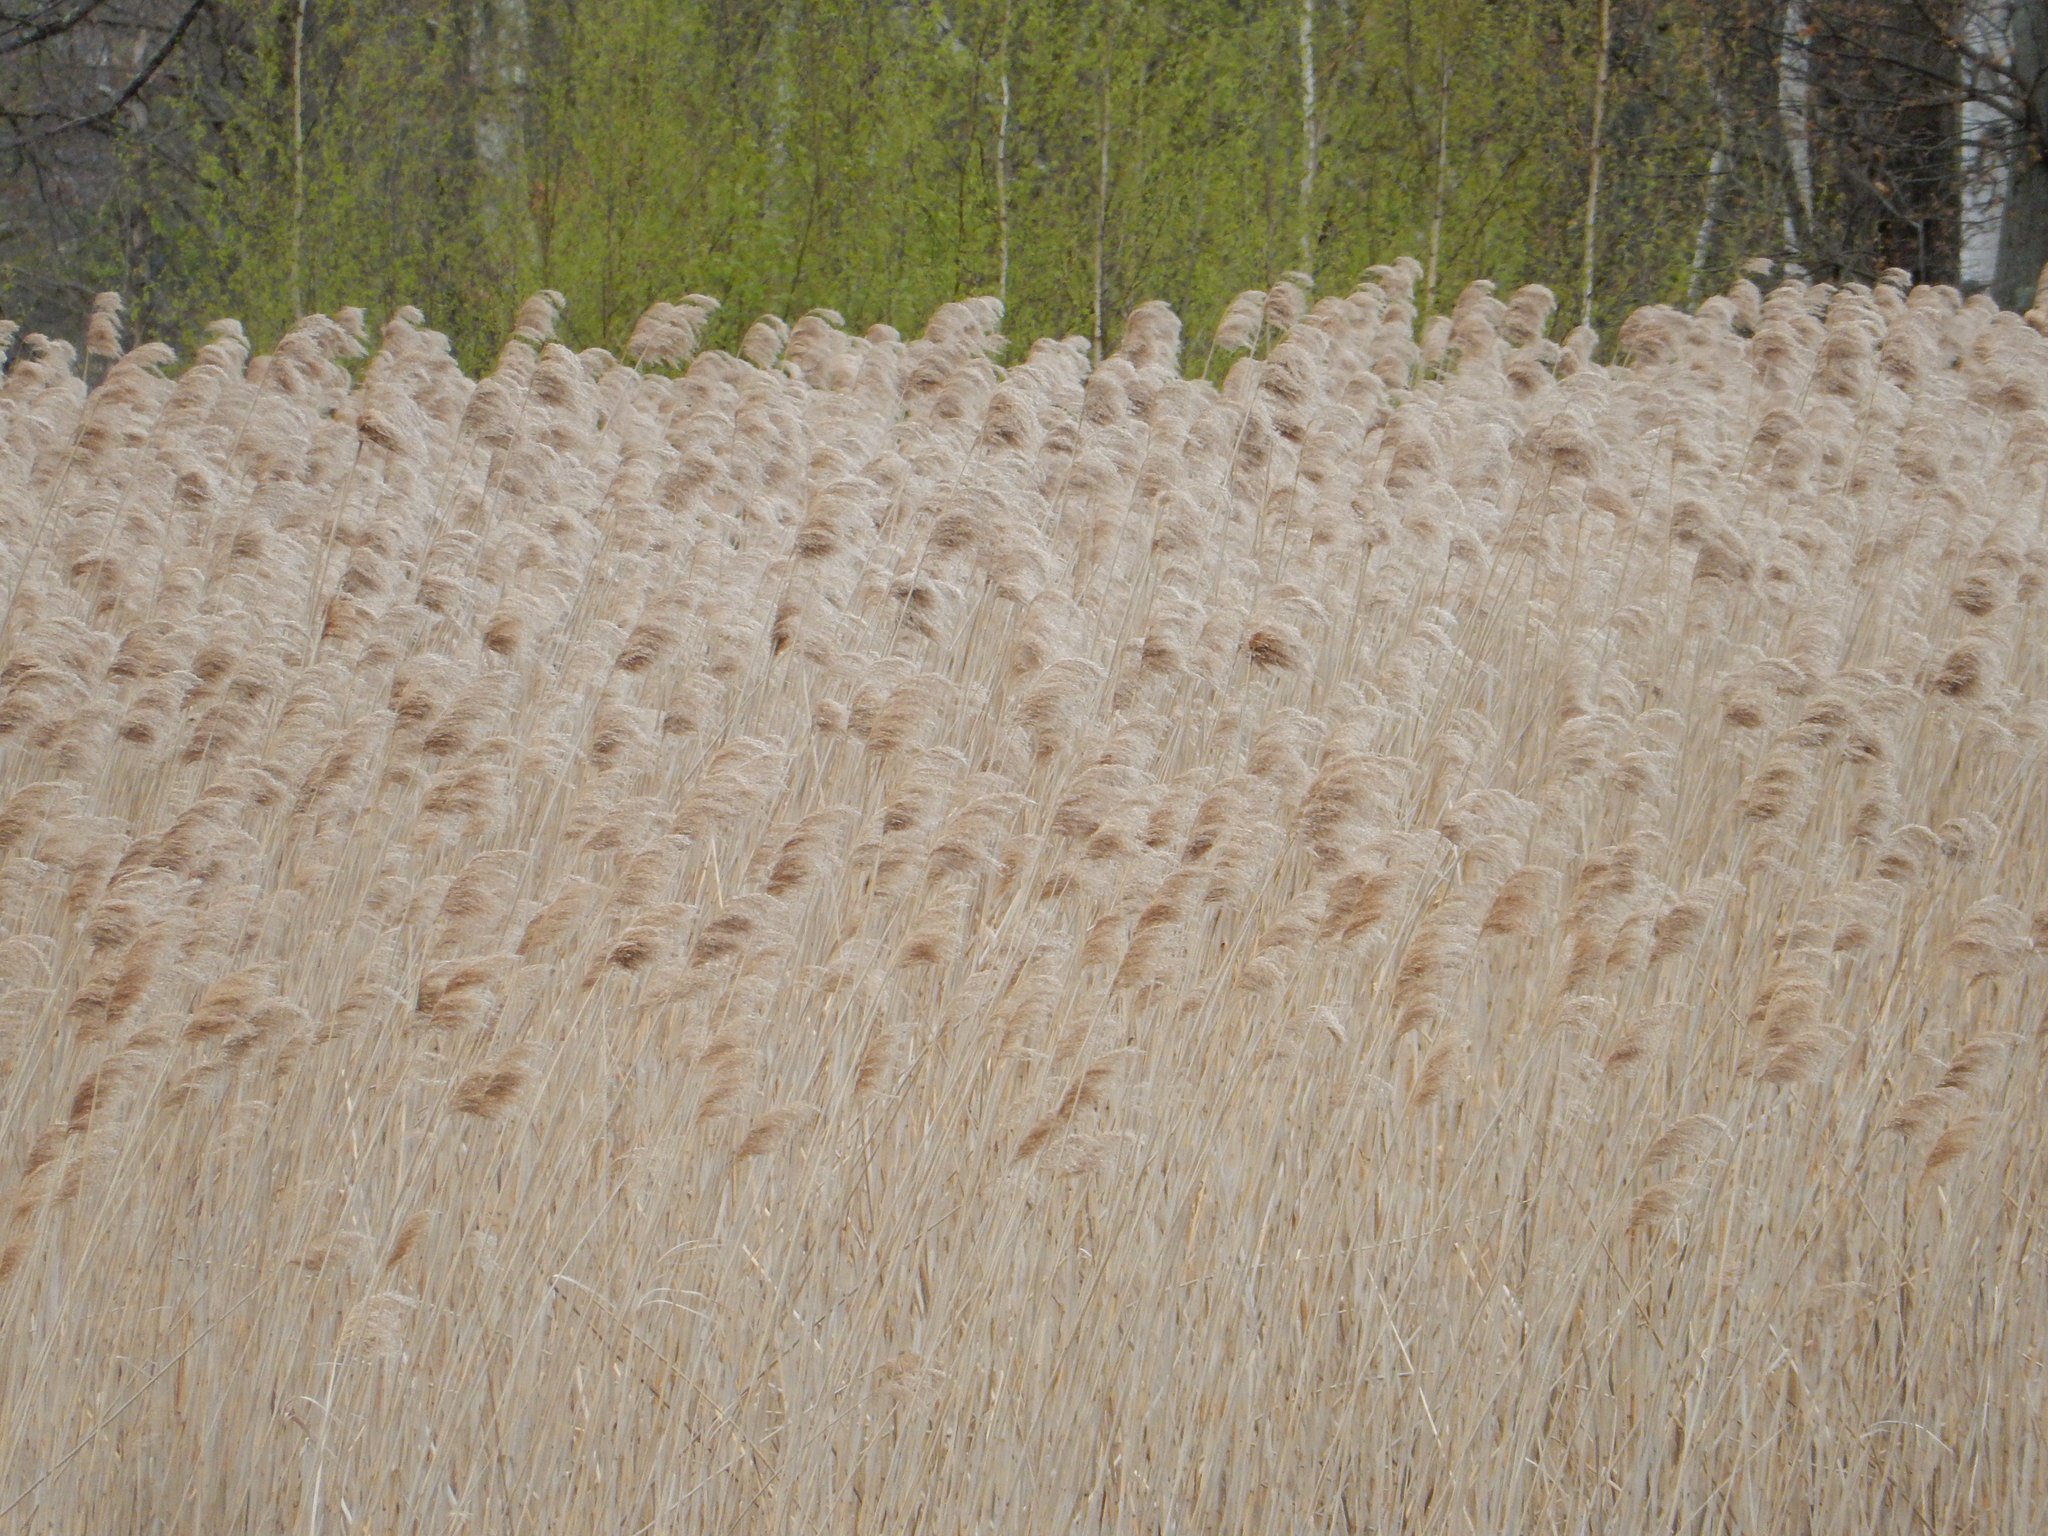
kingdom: Plantae
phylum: Tracheophyta
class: Liliopsida
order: Poales
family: Poaceae
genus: Phragmites
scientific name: Phragmites australis
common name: Common reed
